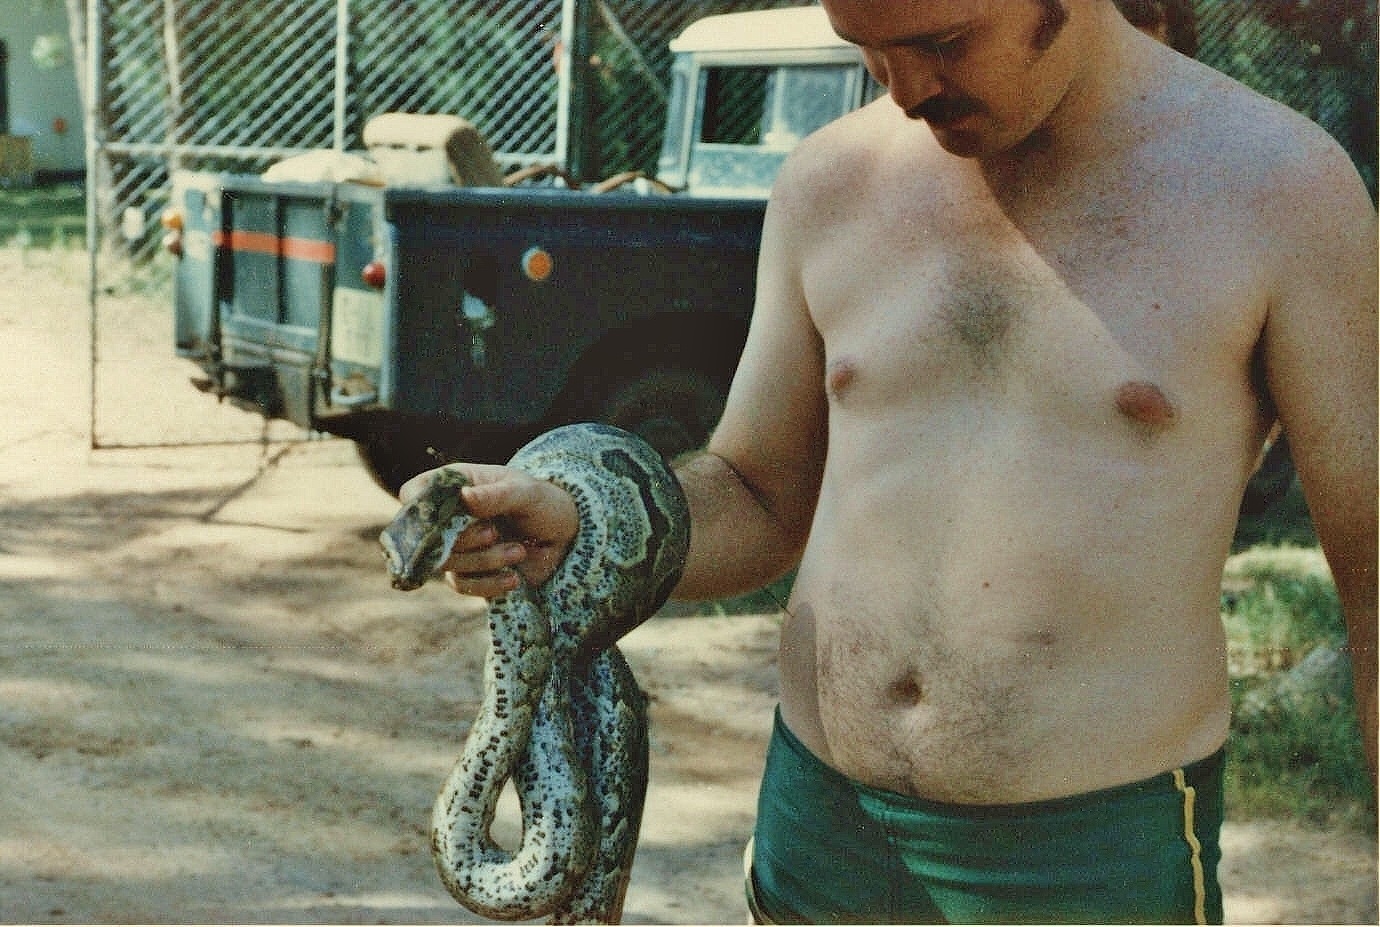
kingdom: Animalia
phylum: Chordata
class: Squamata
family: Pythonidae
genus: Python
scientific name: Python natalensis
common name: Southern african rock python
